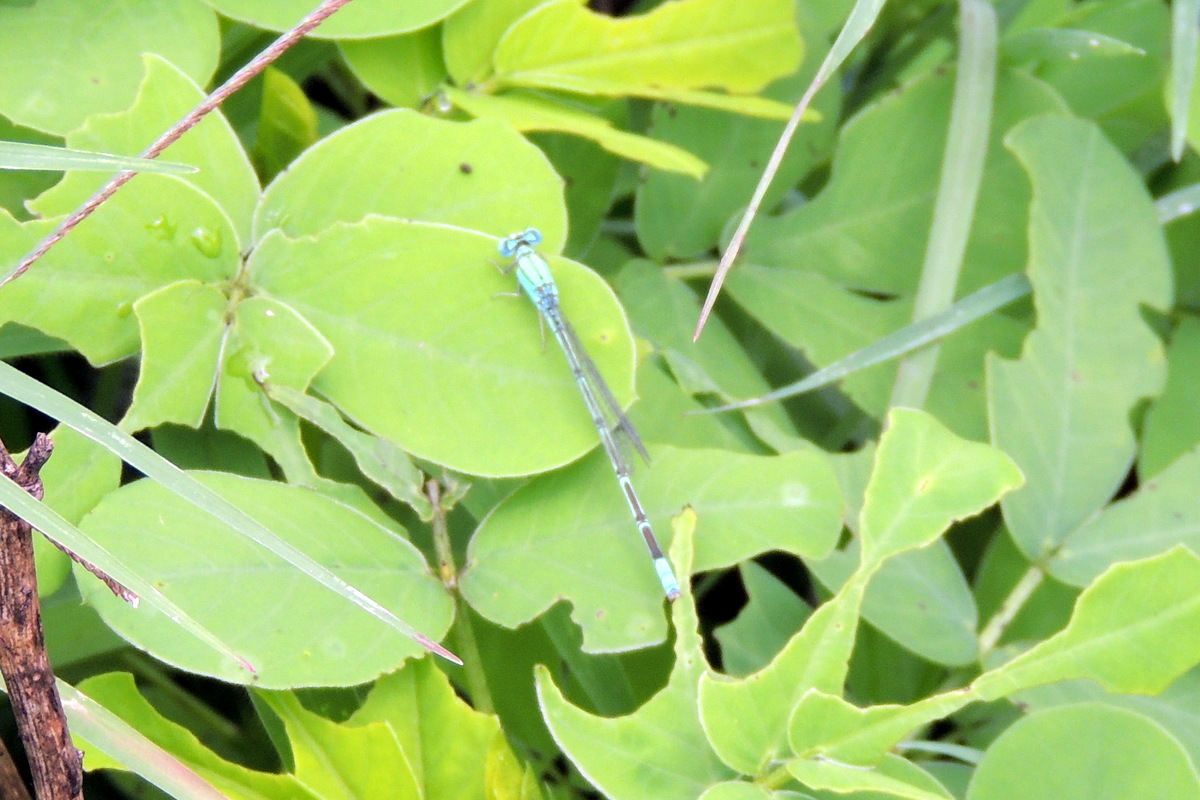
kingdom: Animalia
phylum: Arthropoda
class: Insecta
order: Odonata
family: Coenagrionidae
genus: Pseudagrion
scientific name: Pseudagrion decorum
